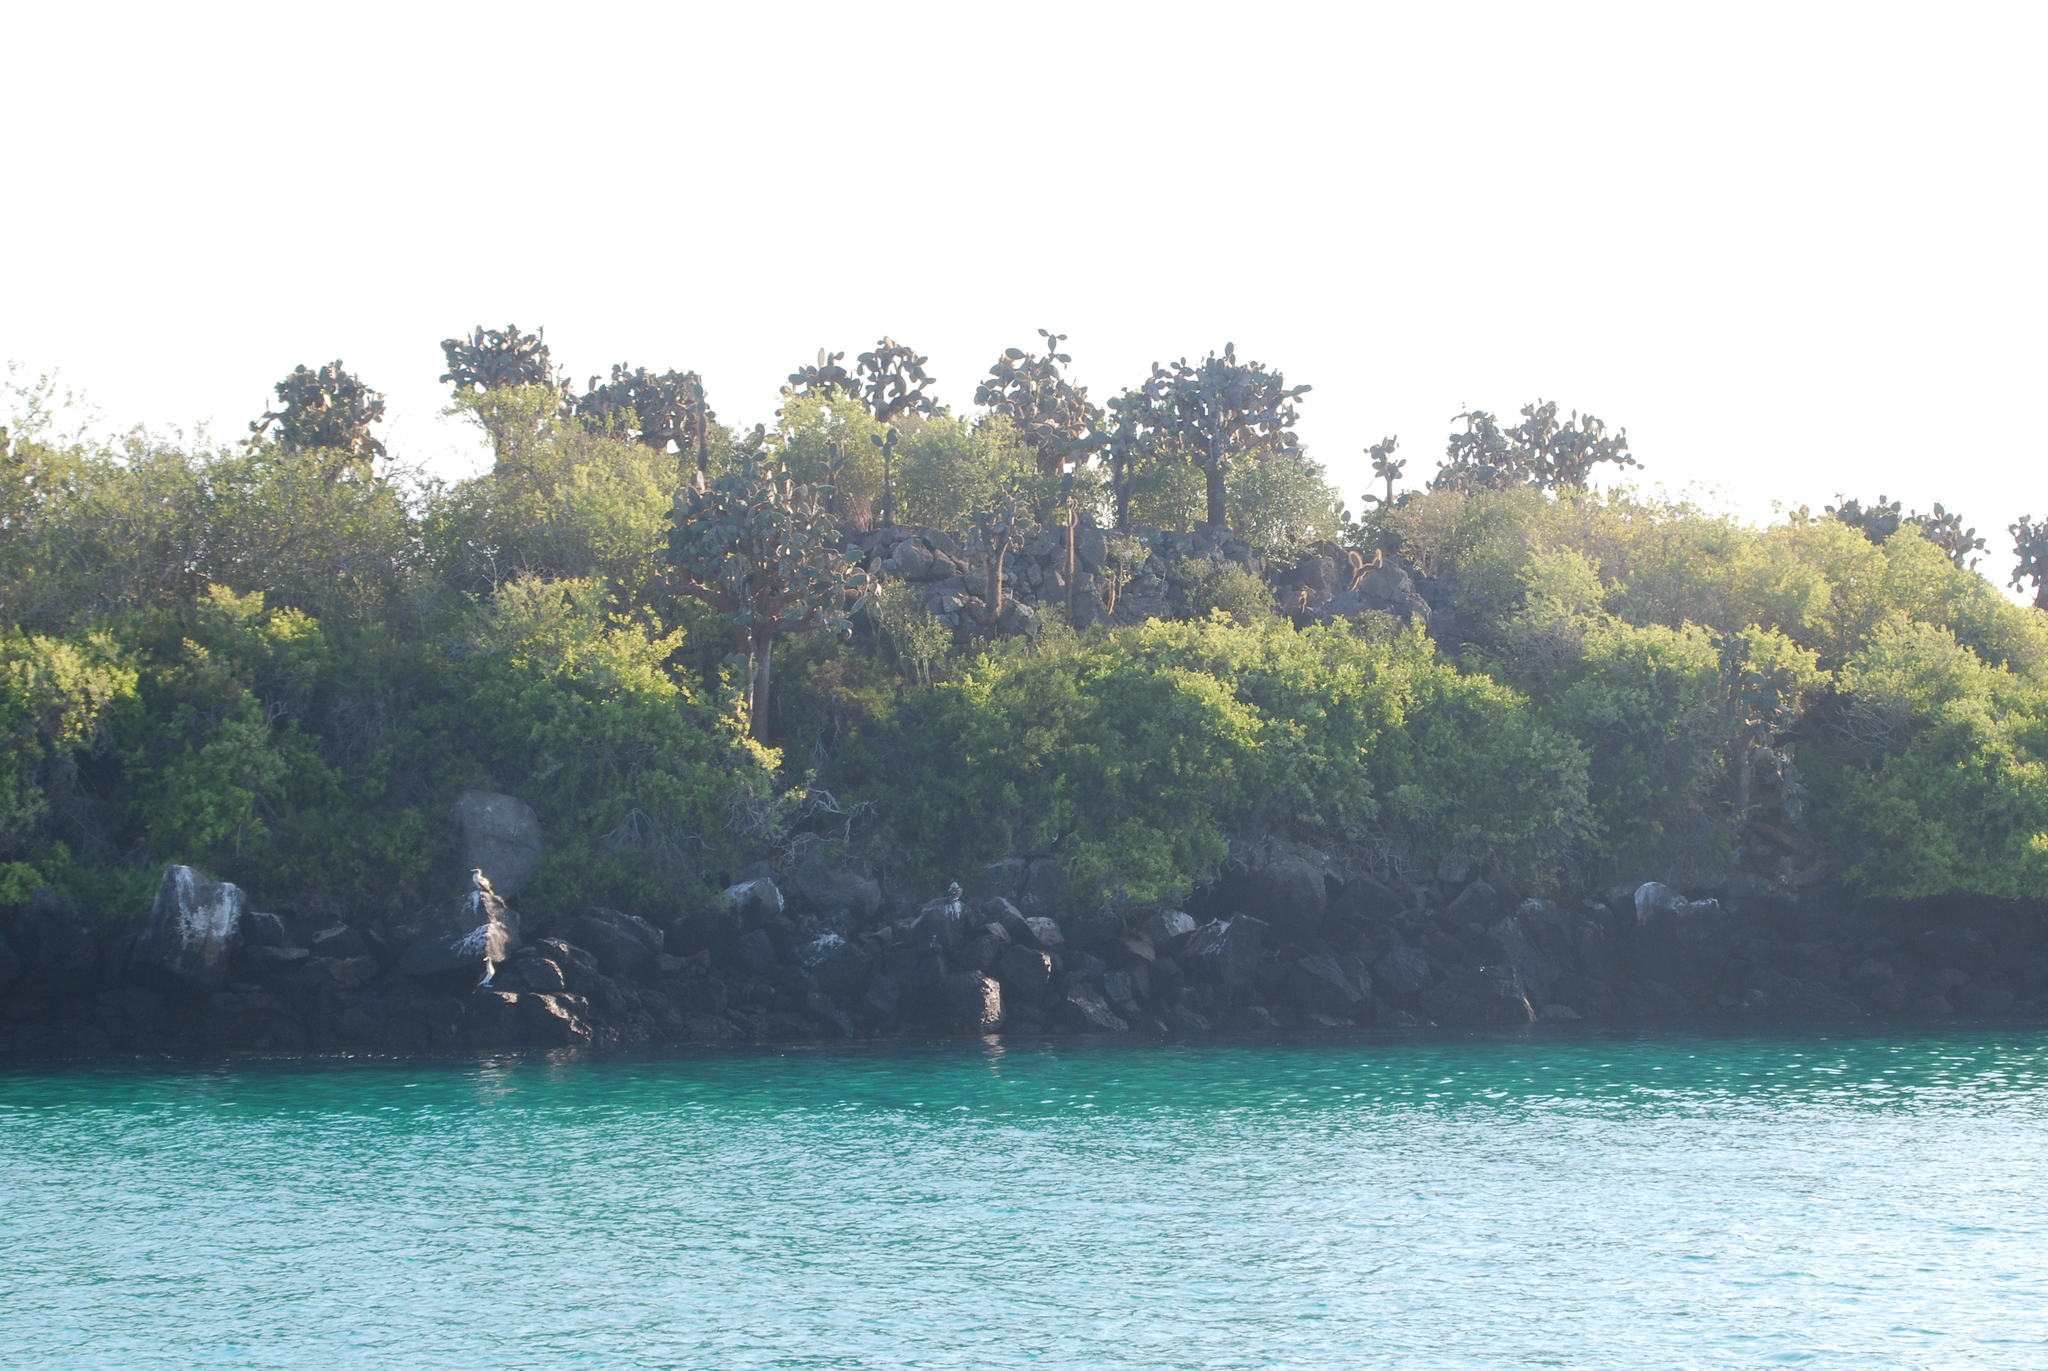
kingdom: Animalia
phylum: Chordata
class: Aves
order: Suliformes
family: Sulidae
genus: Sula
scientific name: Sula nebouxii
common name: Blue-footed booby
